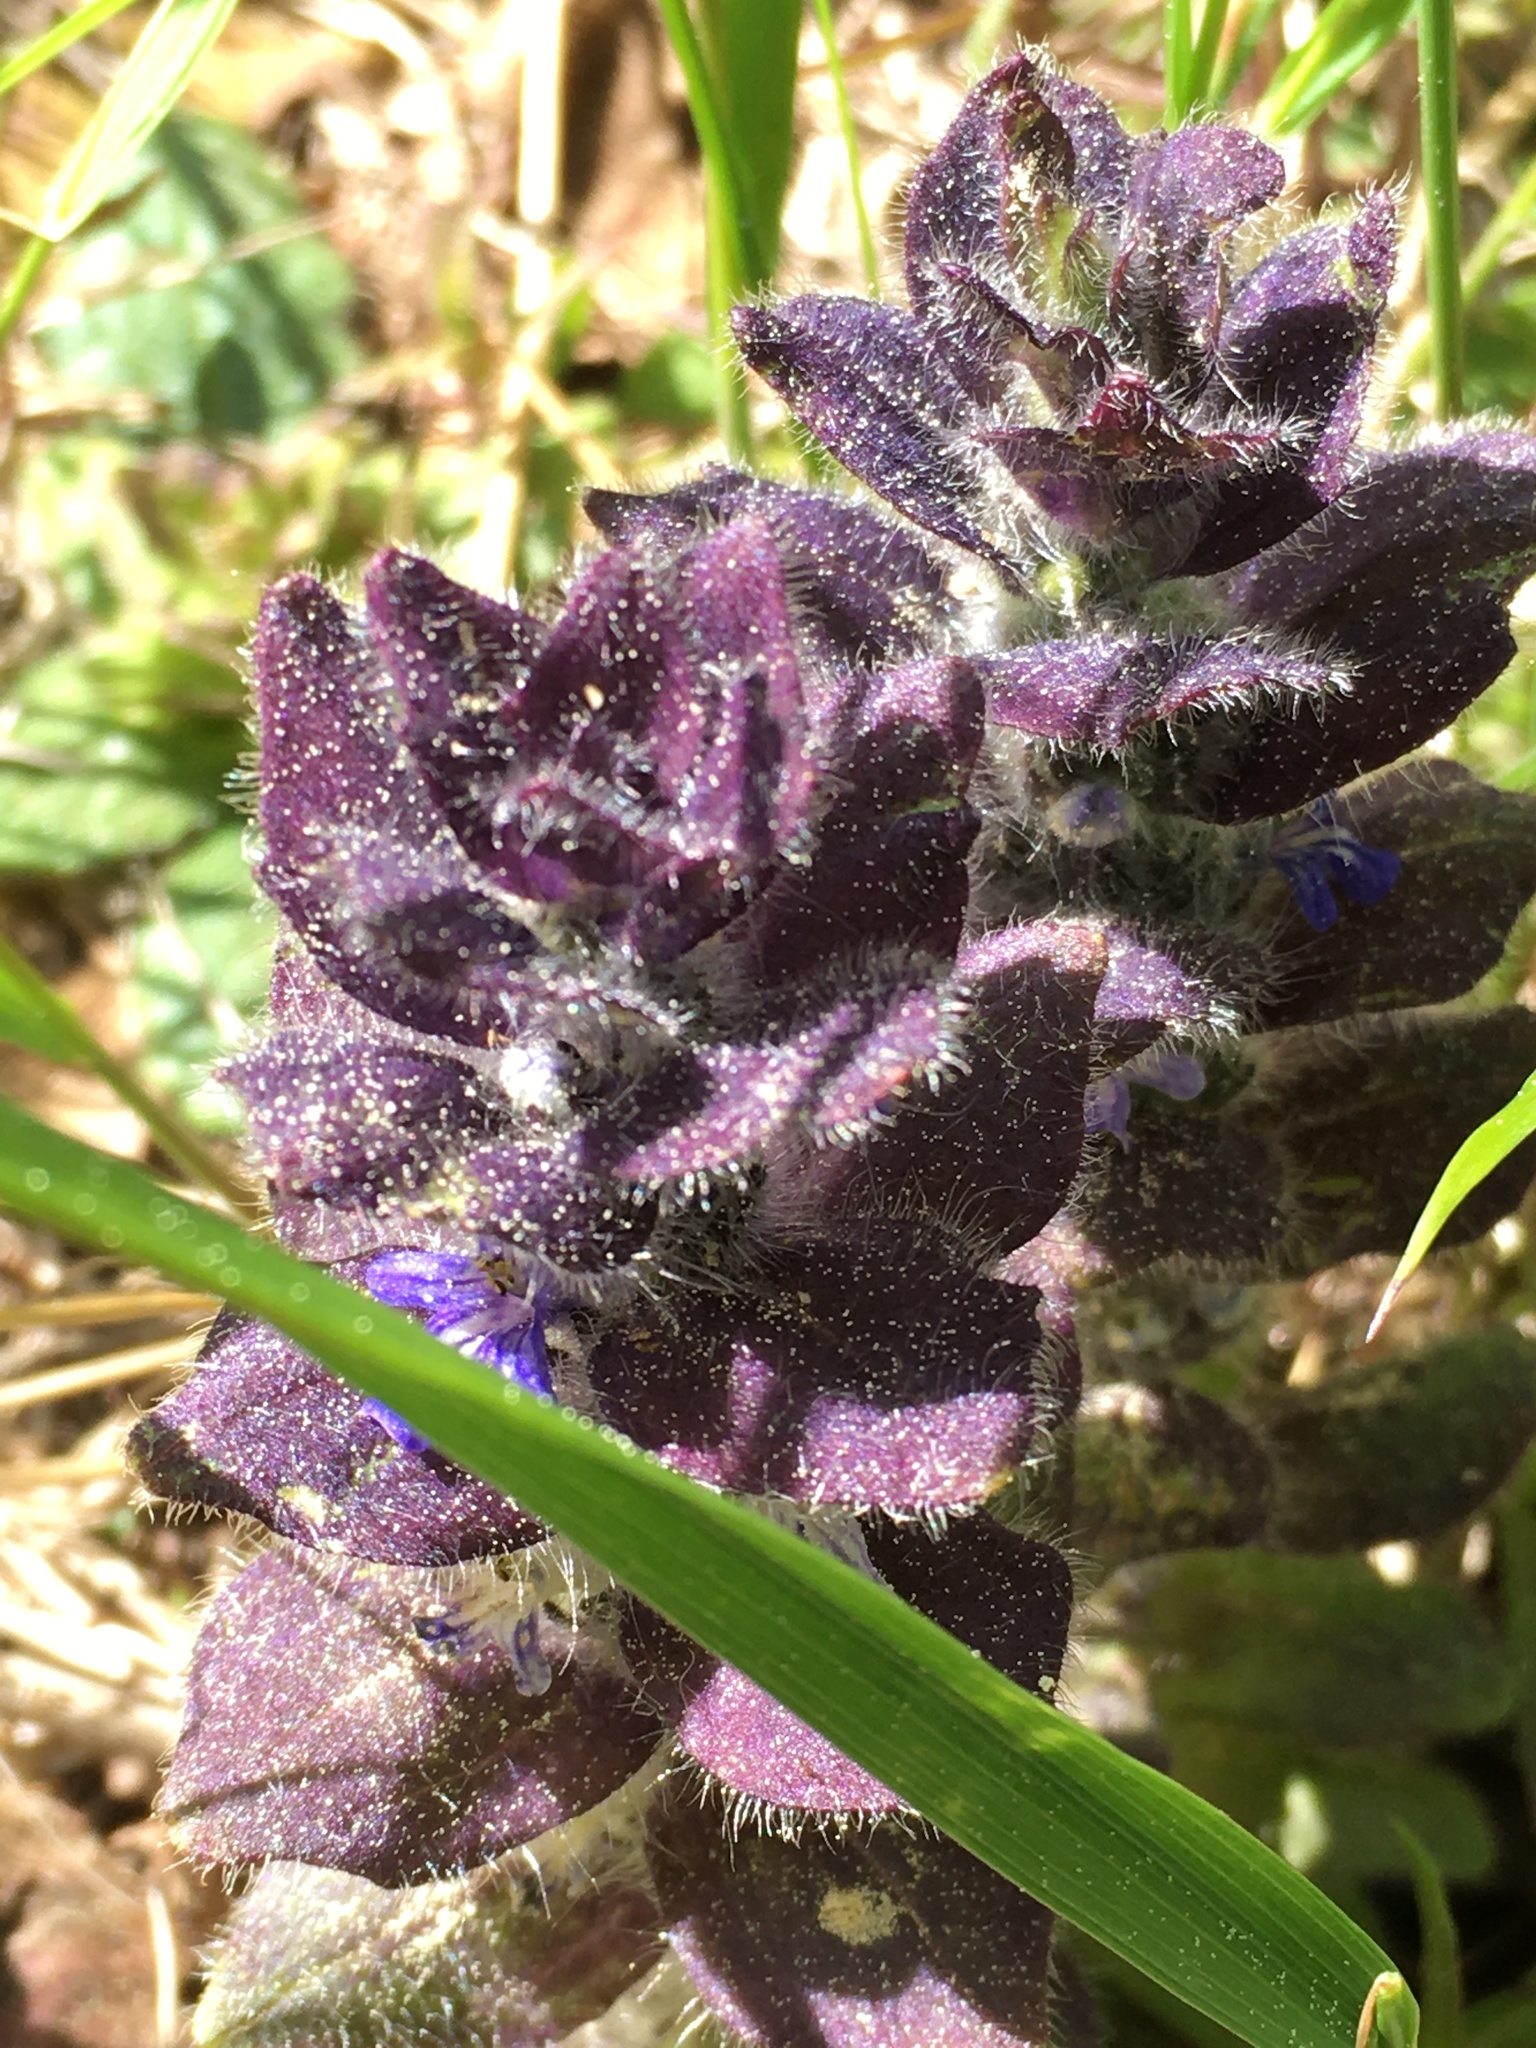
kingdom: Plantae
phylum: Tracheophyta
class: Magnoliopsida
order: Lamiales
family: Lamiaceae
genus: Ajuga
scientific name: Ajuga pyramidalis
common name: Pyramid bugle
